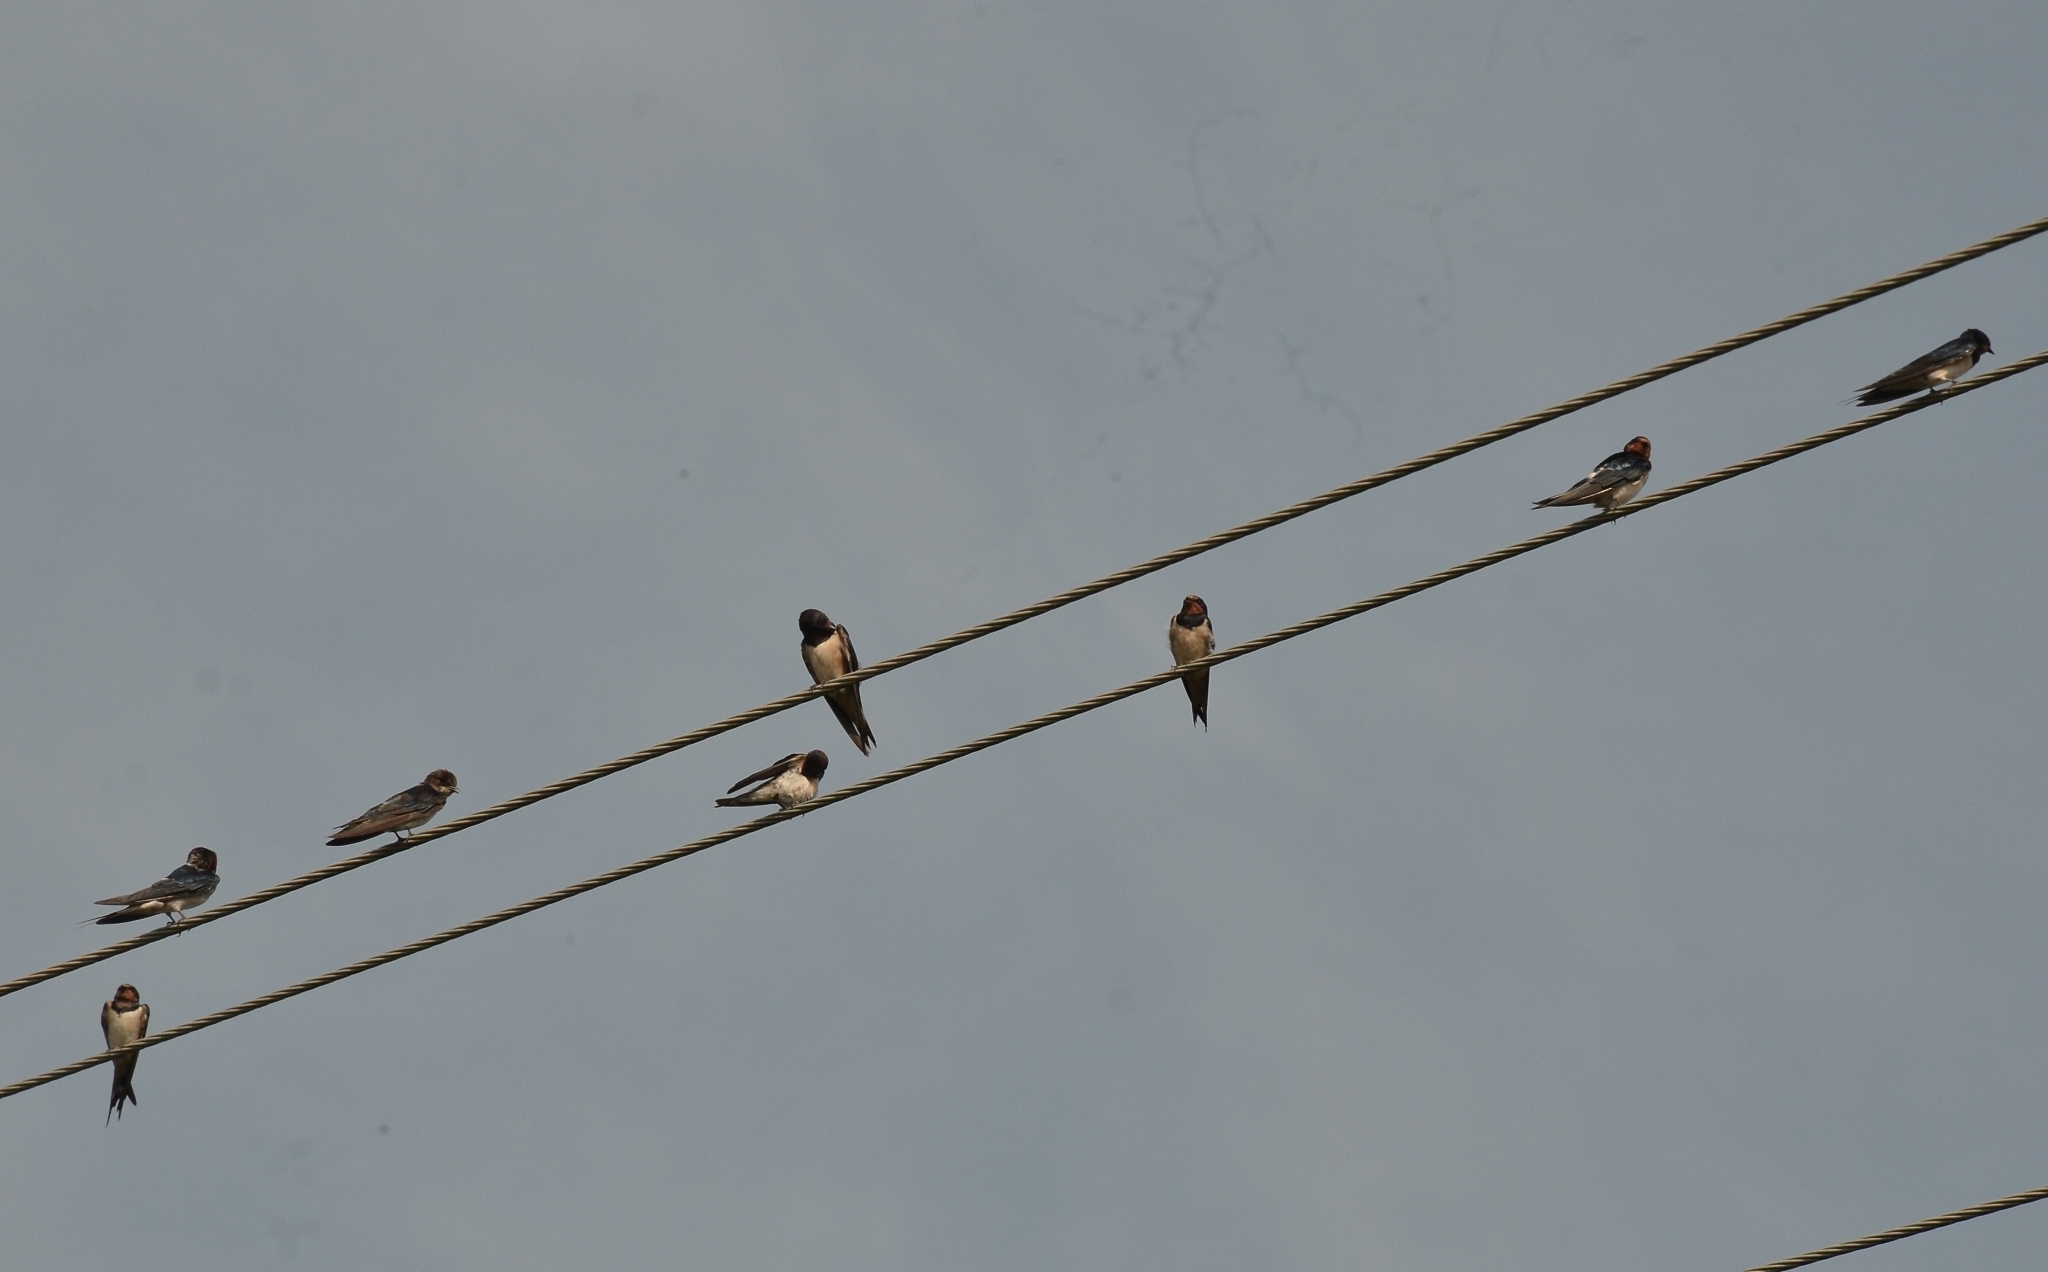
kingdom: Animalia
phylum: Chordata
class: Aves
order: Passeriformes
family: Hirundinidae
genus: Hirundo
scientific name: Hirundo rustica
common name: Barn swallow
